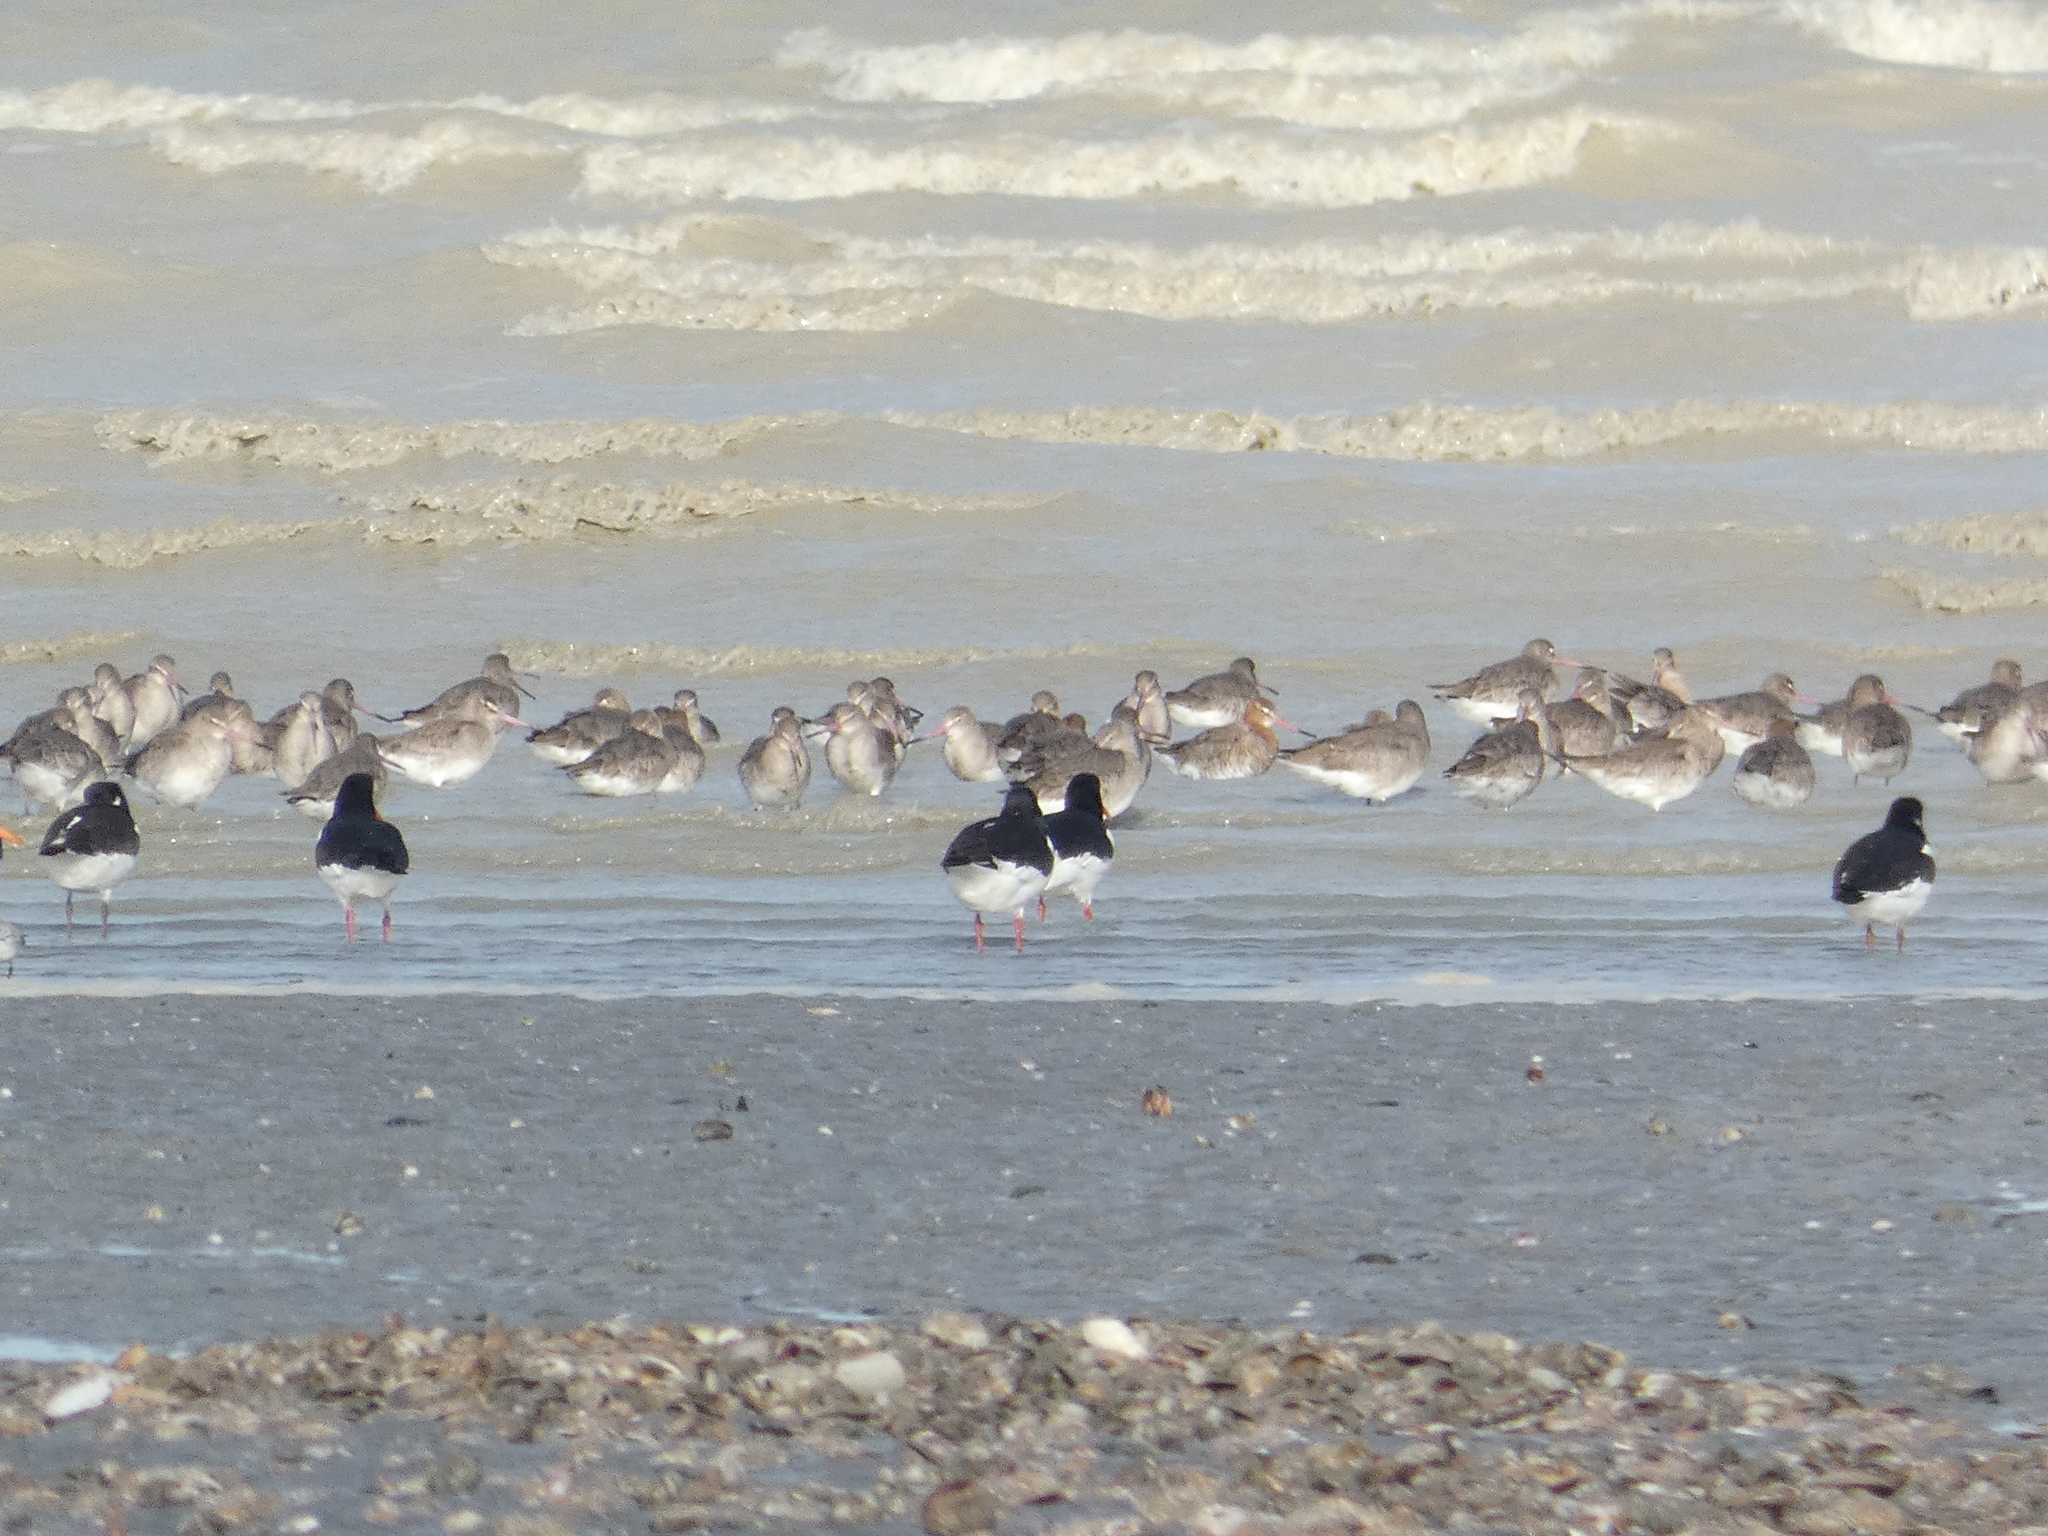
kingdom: Animalia
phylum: Chordata
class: Aves
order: Charadriiformes
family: Scolopacidae
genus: Limosa
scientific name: Limosa lapponica
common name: Bar-tailed godwit
